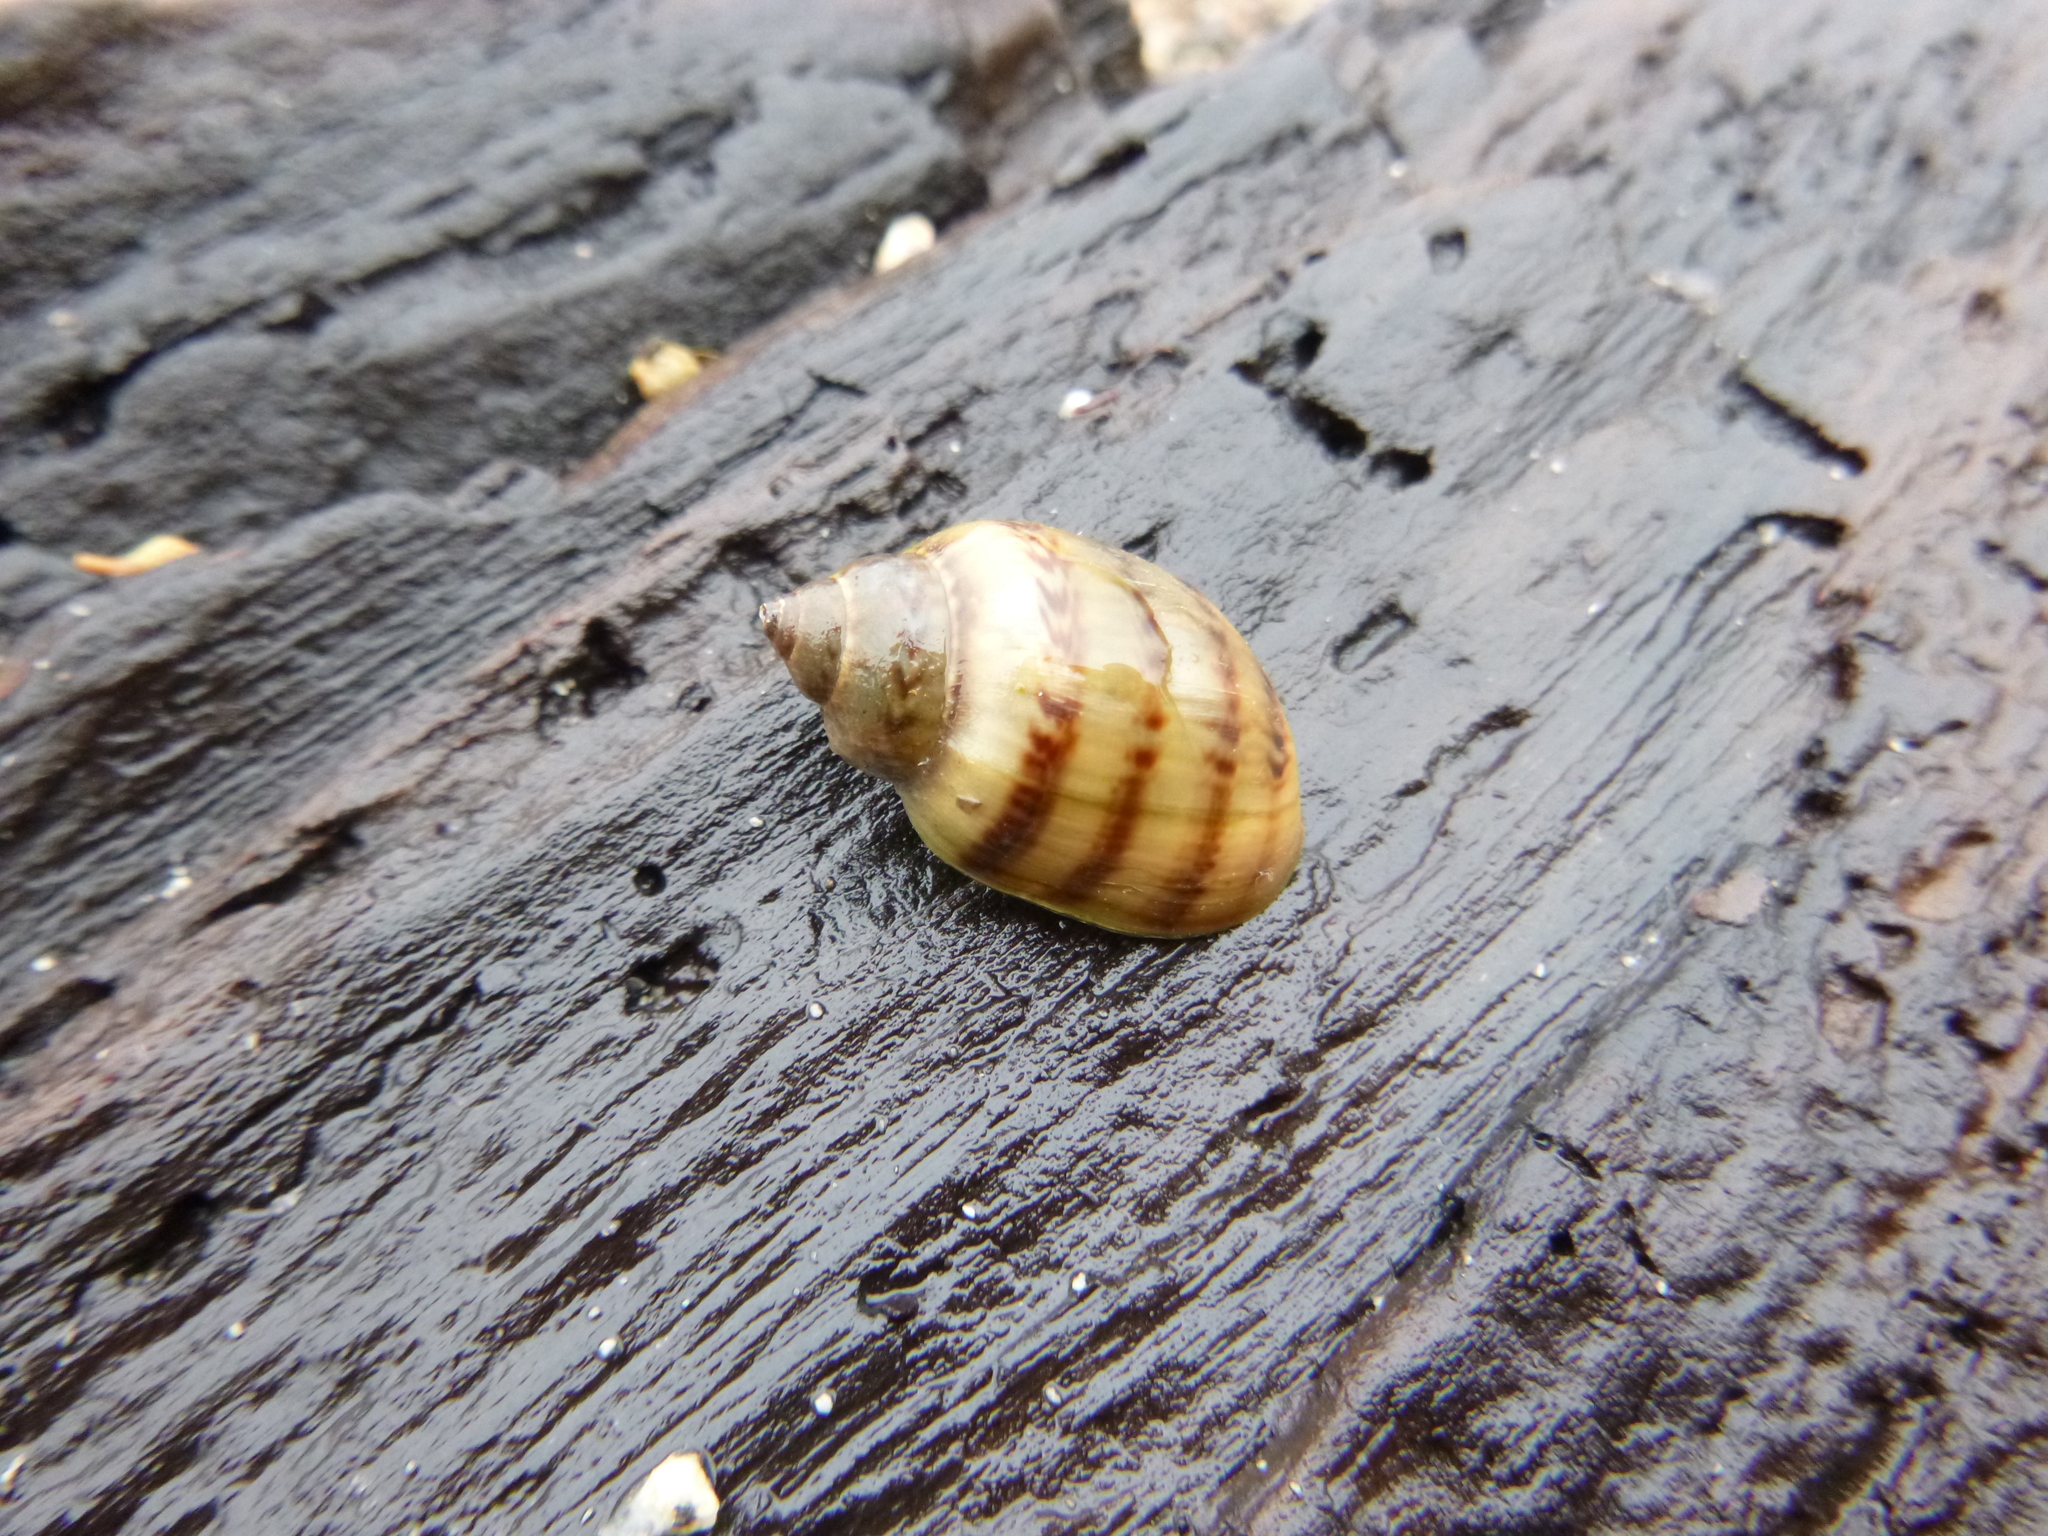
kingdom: Animalia
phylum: Mollusca
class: Gastropoda
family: Chilinidae
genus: Chilina
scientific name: Chilina gibbosa
